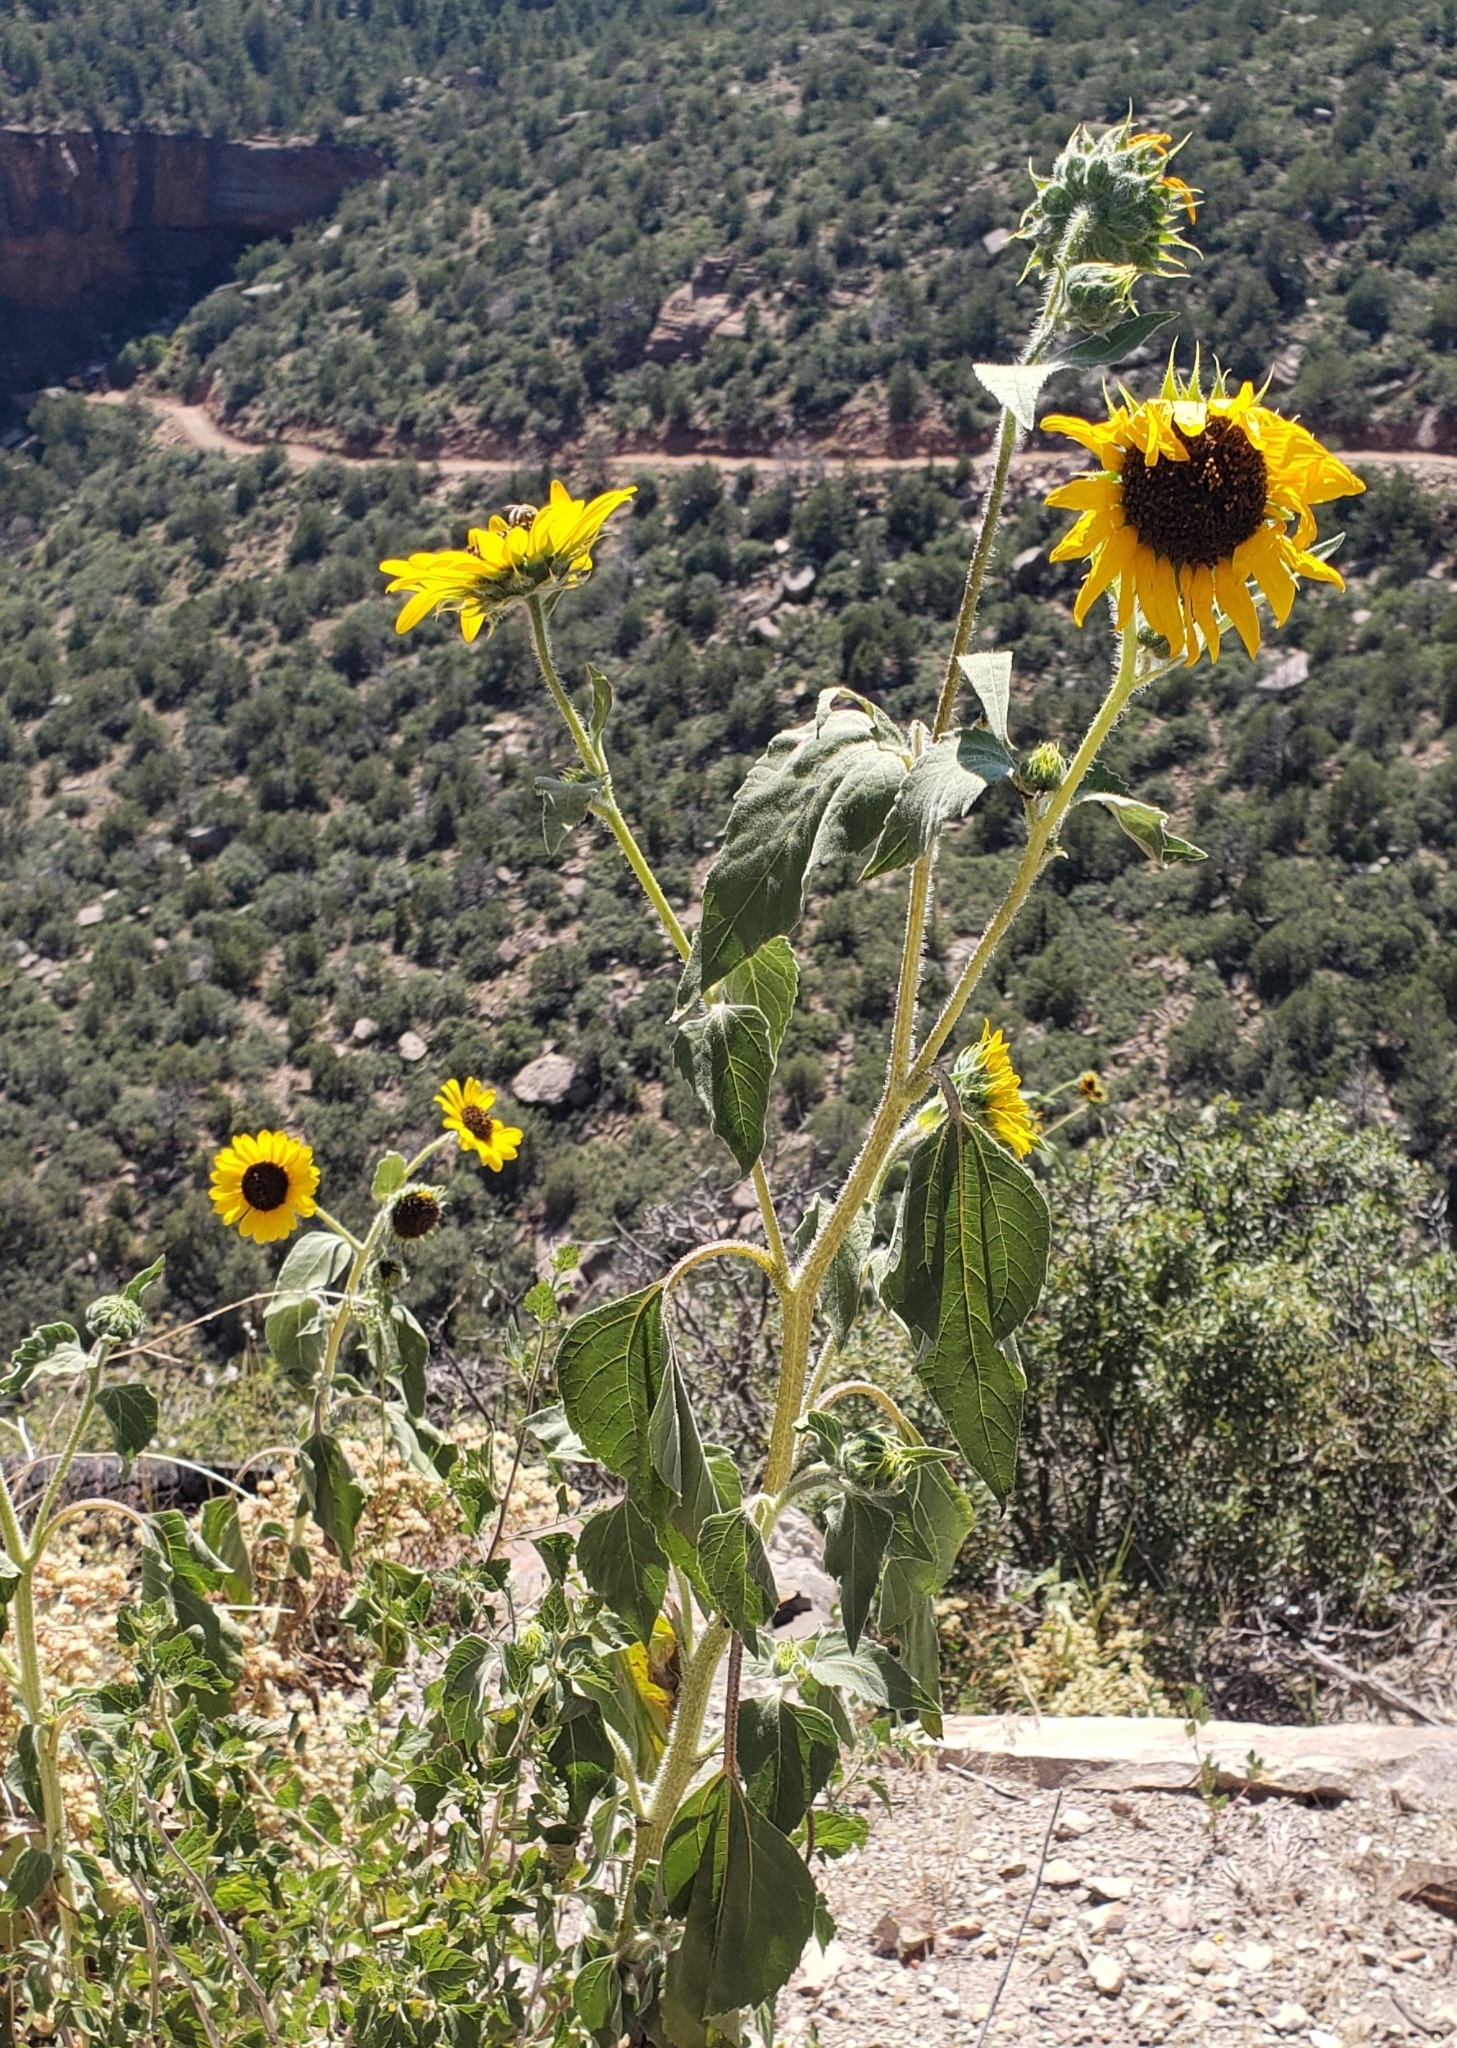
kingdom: Plantae
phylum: Tracheophyta
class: Magnoliopsida
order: Asterales
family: Asteraceae
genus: Helianthus
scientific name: Helianthus annuus
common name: Sunflower
